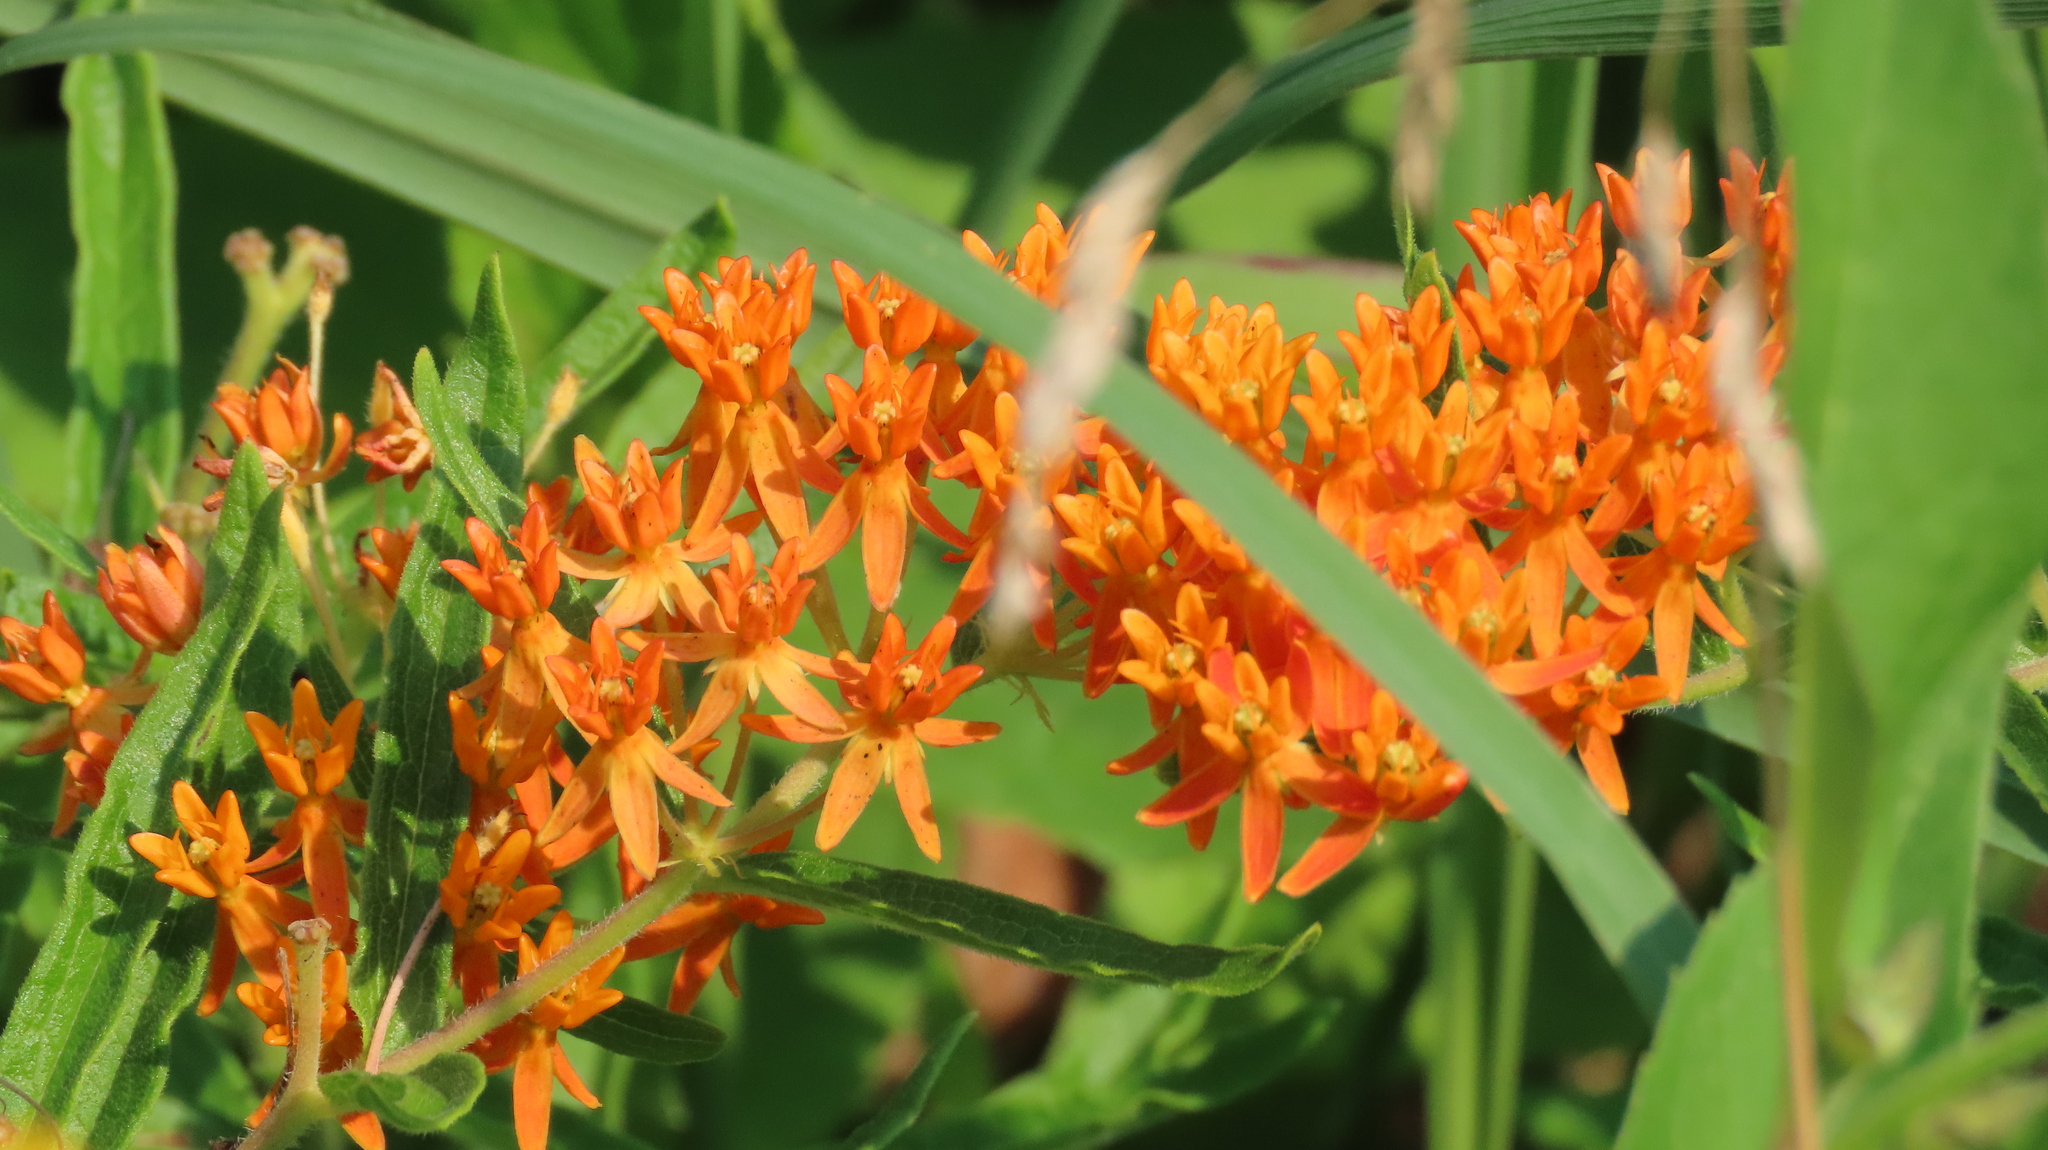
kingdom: Plantae
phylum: Tracheophyta
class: Magnoliopsida
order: Gentianales
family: Apocynaceae
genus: Asclepias
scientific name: Asclepias tuberosa
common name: Butterfly milkweed
